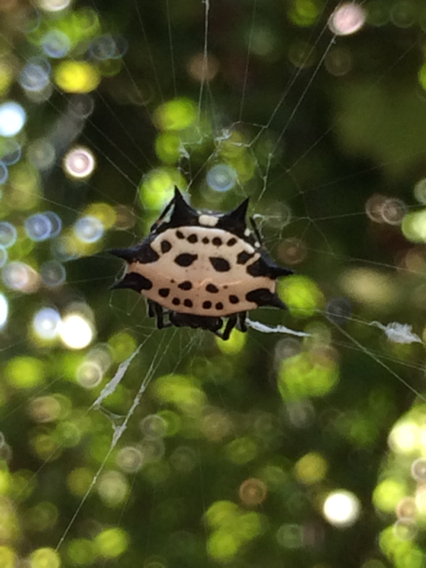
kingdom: Animalia
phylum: Arthropoda
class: Arachnida
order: Araneae
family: Araneidae
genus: Gasteracantha
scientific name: Gasteracantha cancriformis
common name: Orb weavers
